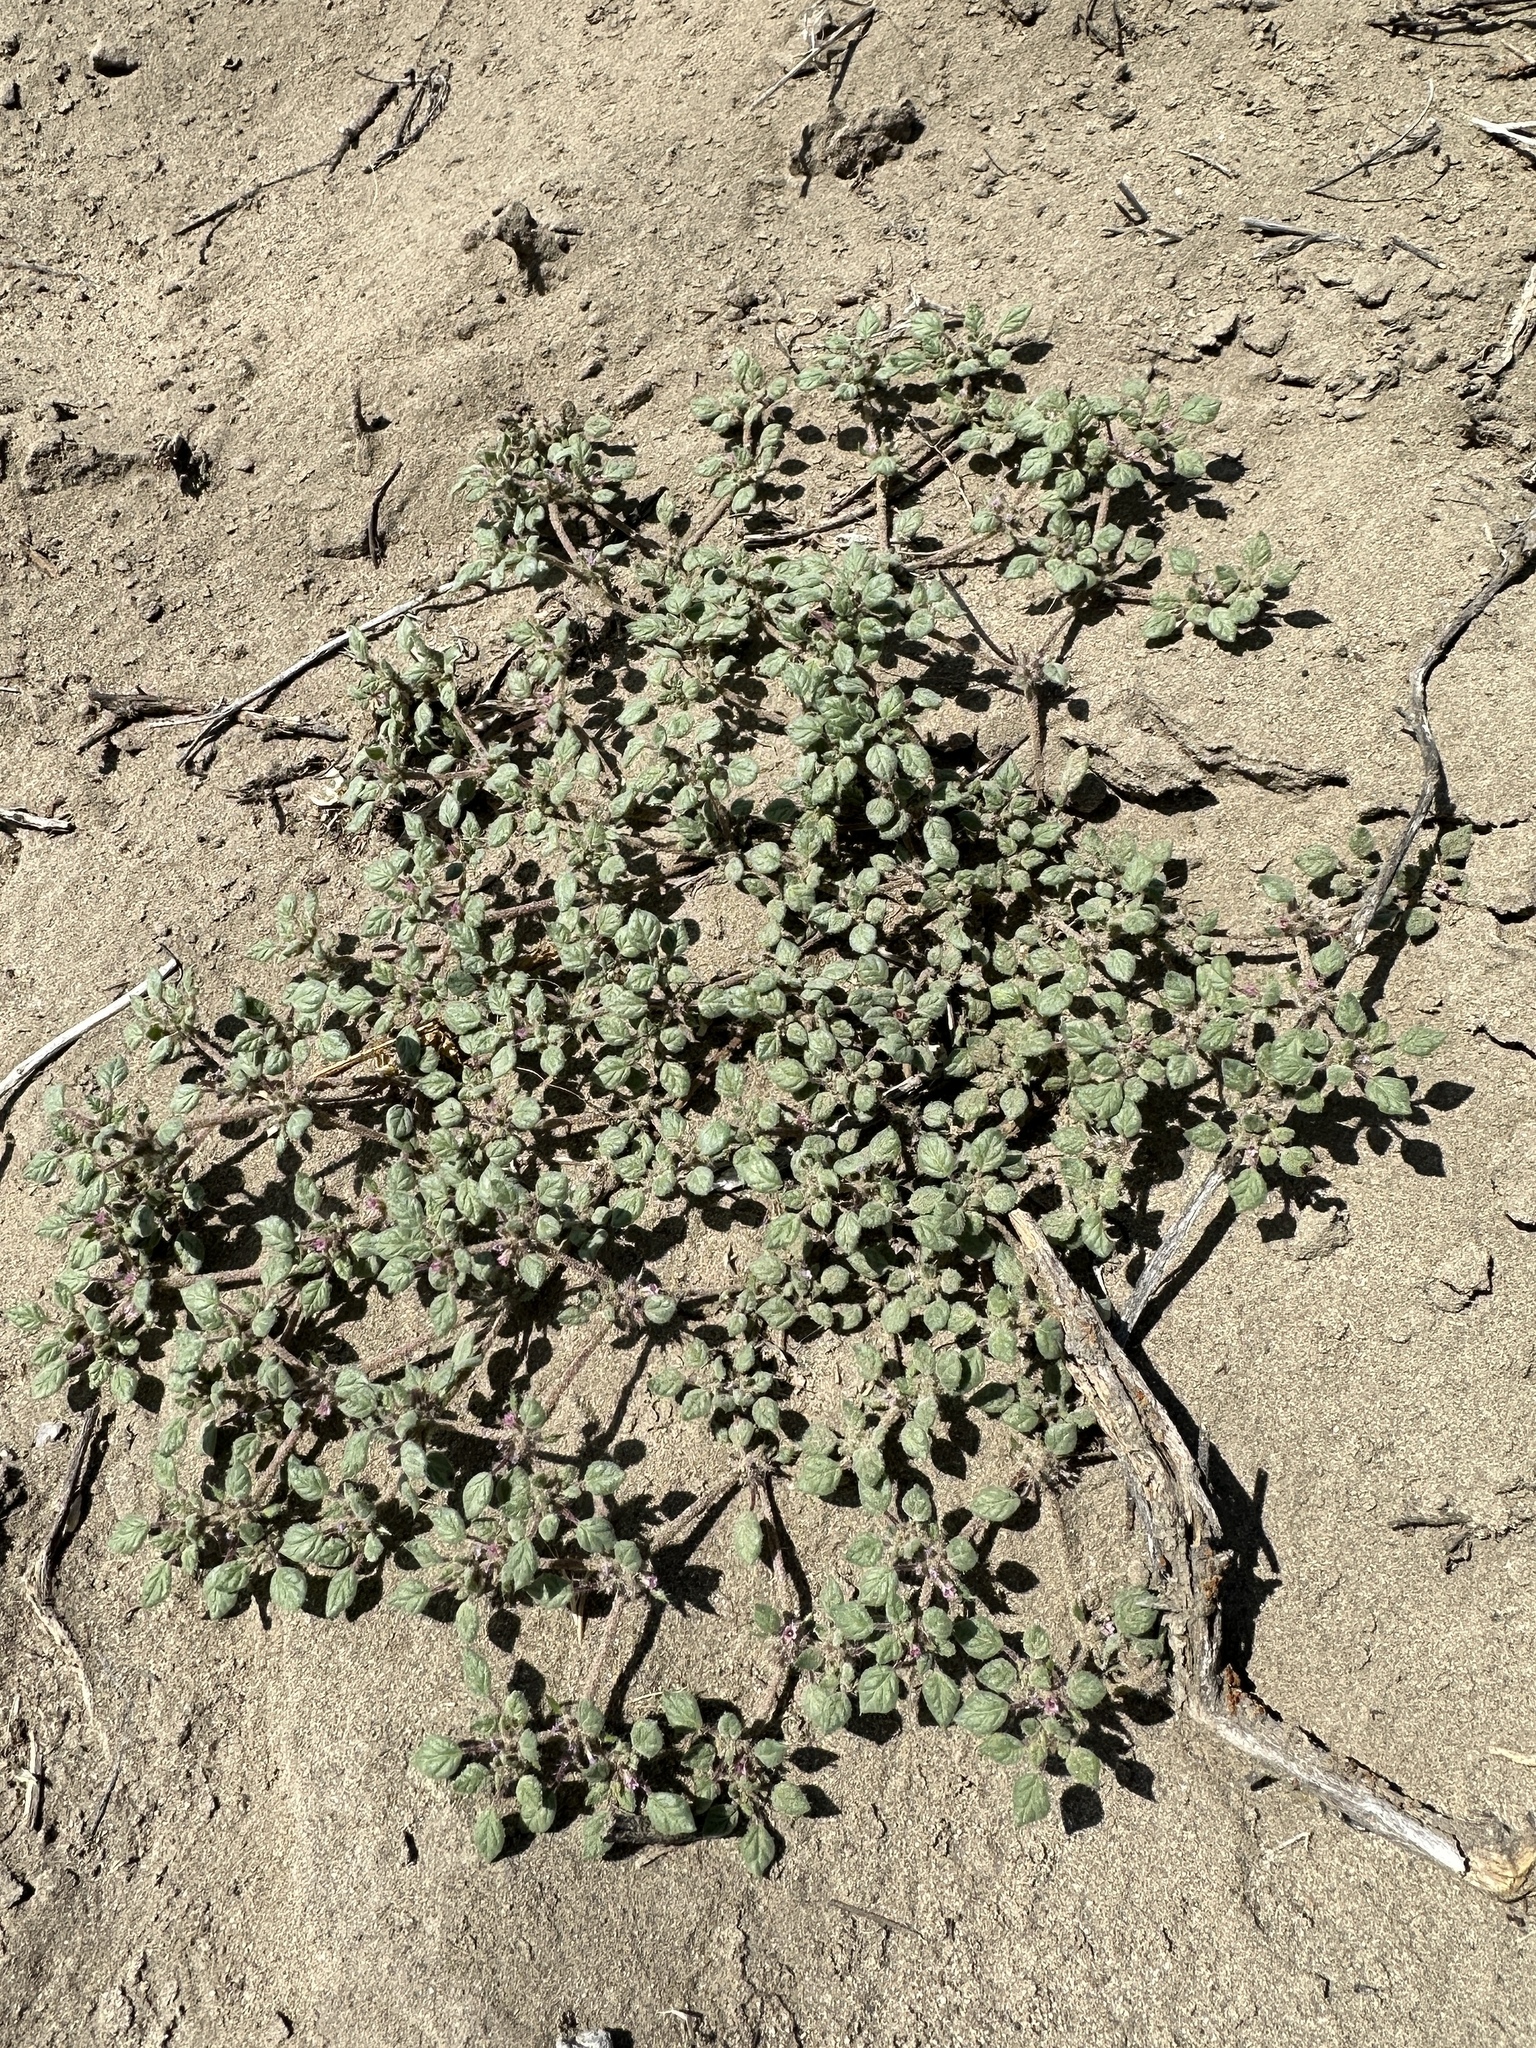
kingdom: Plantae
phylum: Tracheophyta
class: Magnoliopsida
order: Boraginales
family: Ehretiaceae
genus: Tiquilia
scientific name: Tiquilia nuttallii
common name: Rosette tiquilia
